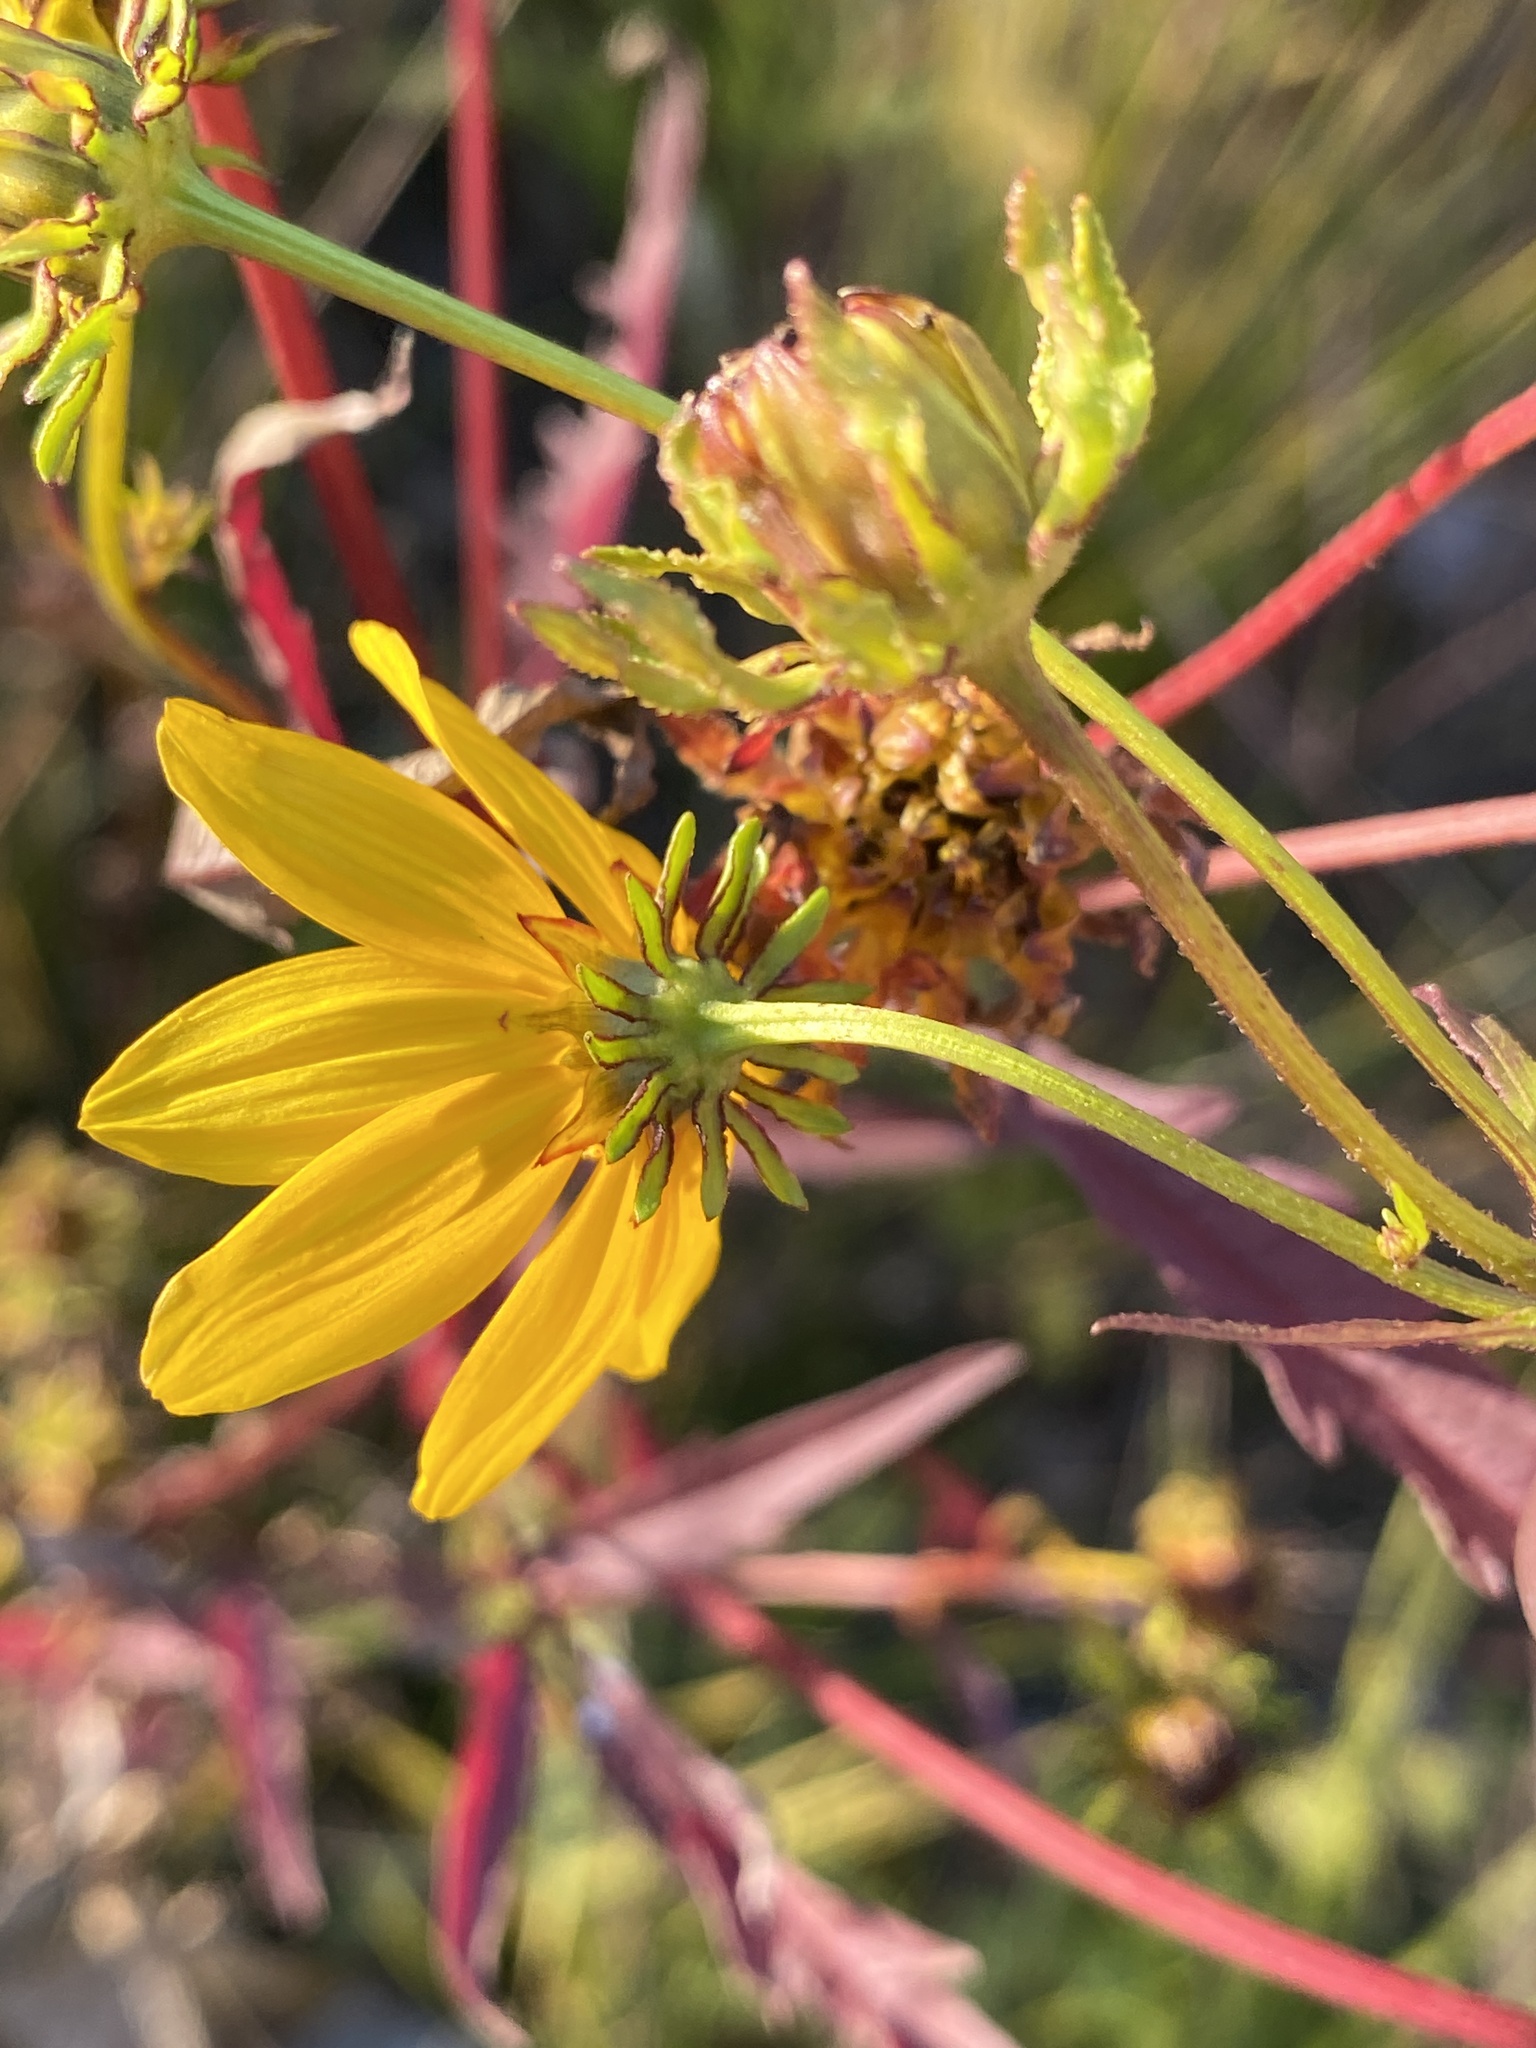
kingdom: Plantae
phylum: Tracheophyta
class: Magnoliopsida
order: Asterales
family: Asteraceae
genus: Bidens
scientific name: Bidens polylepis
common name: Awnless beggarticks
